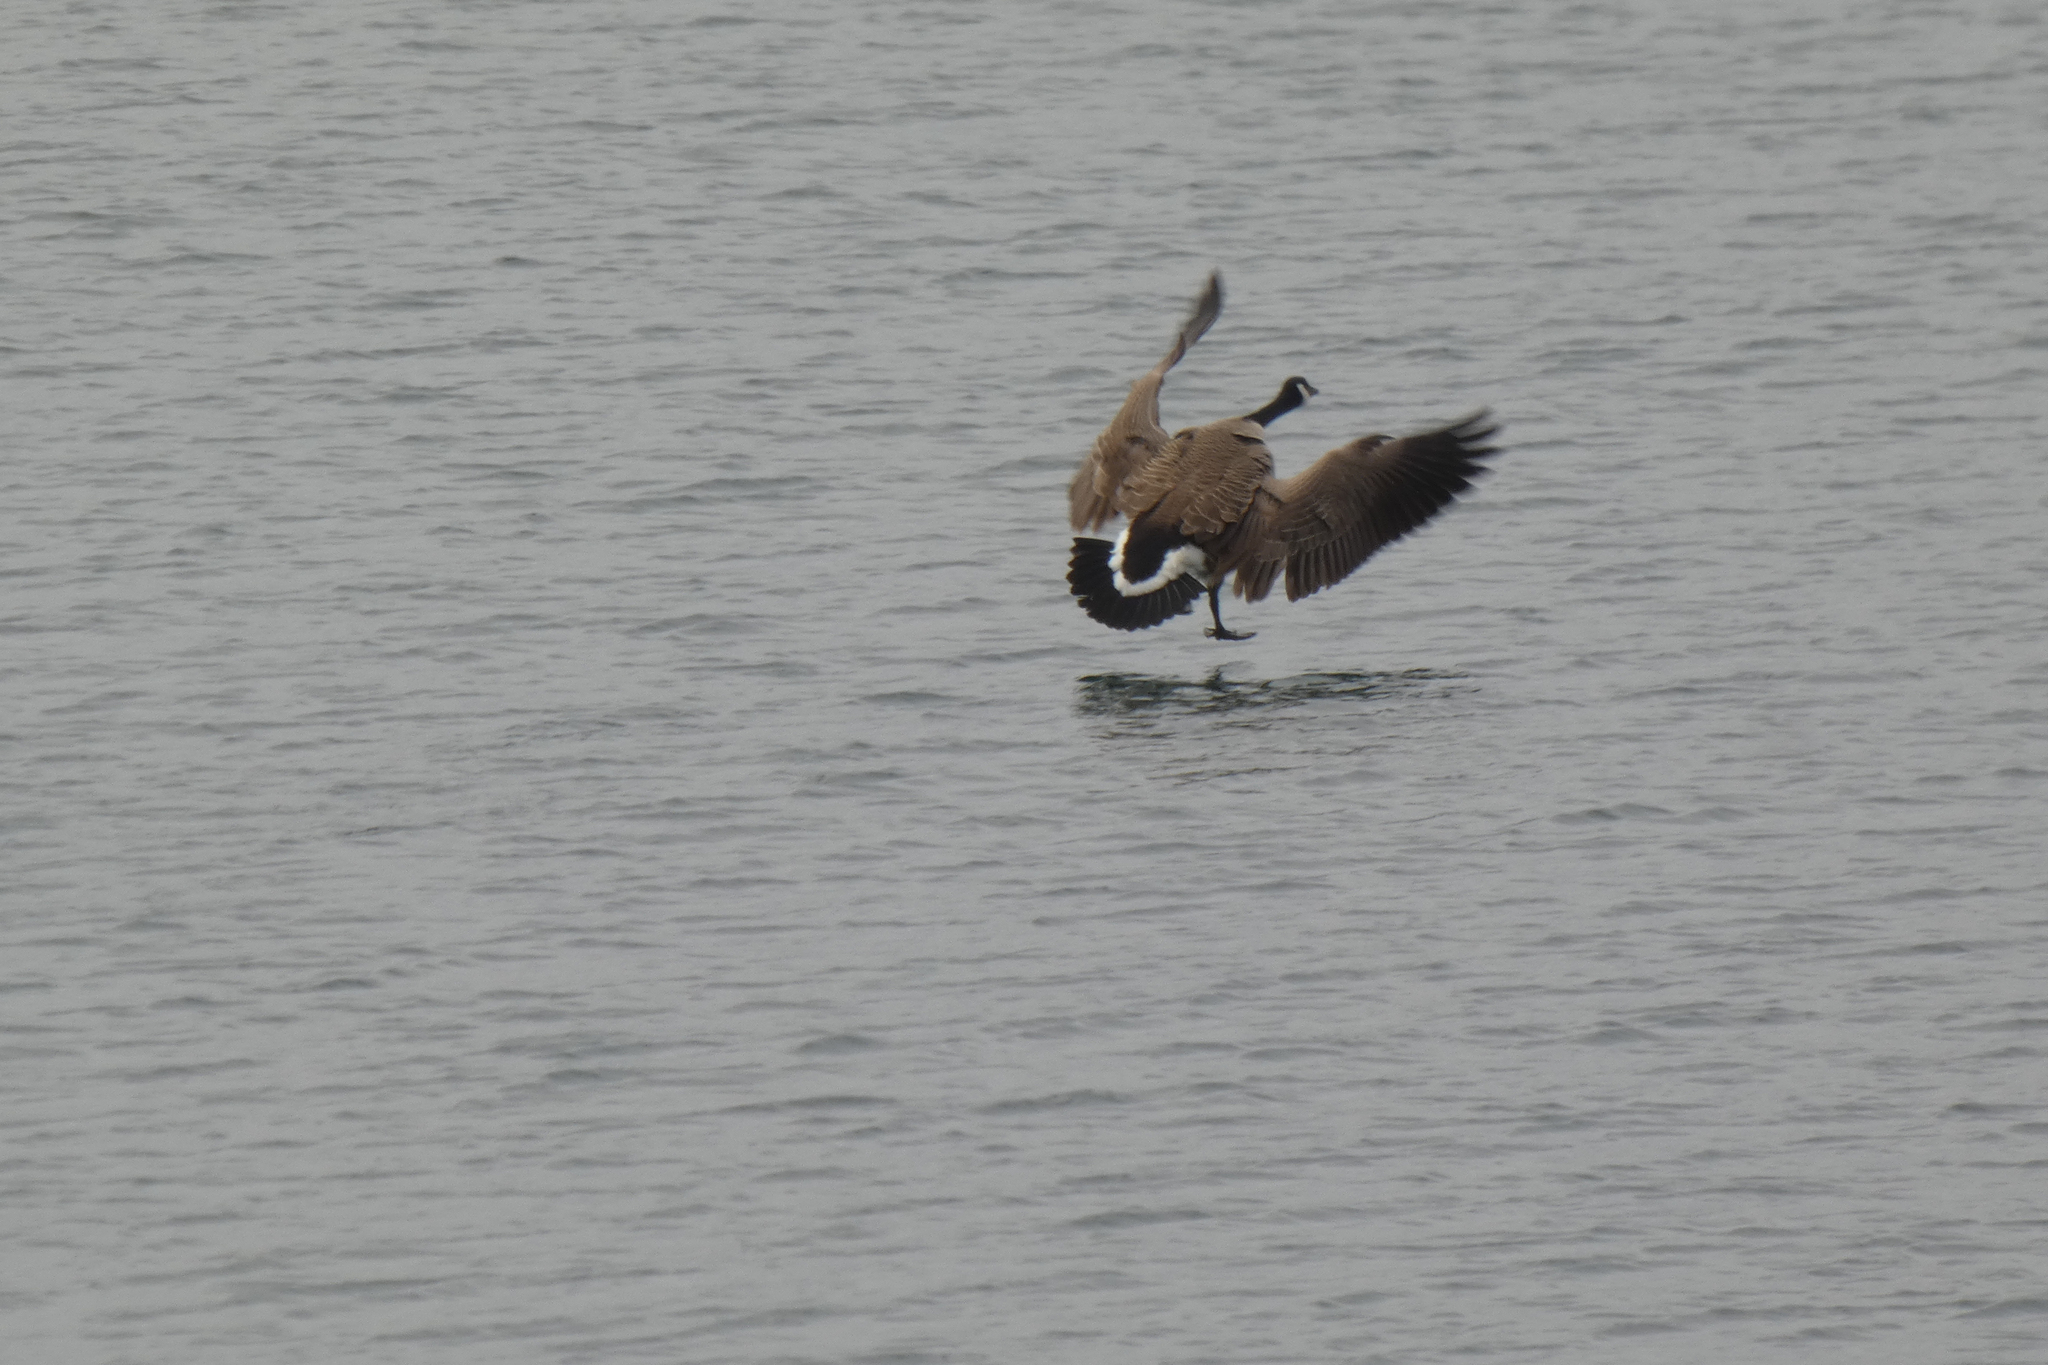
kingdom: Animalia
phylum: Chordata
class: Aves
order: Anseriformes
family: Anatidae
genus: Branta
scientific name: Branta canadensis
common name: Canada goose
